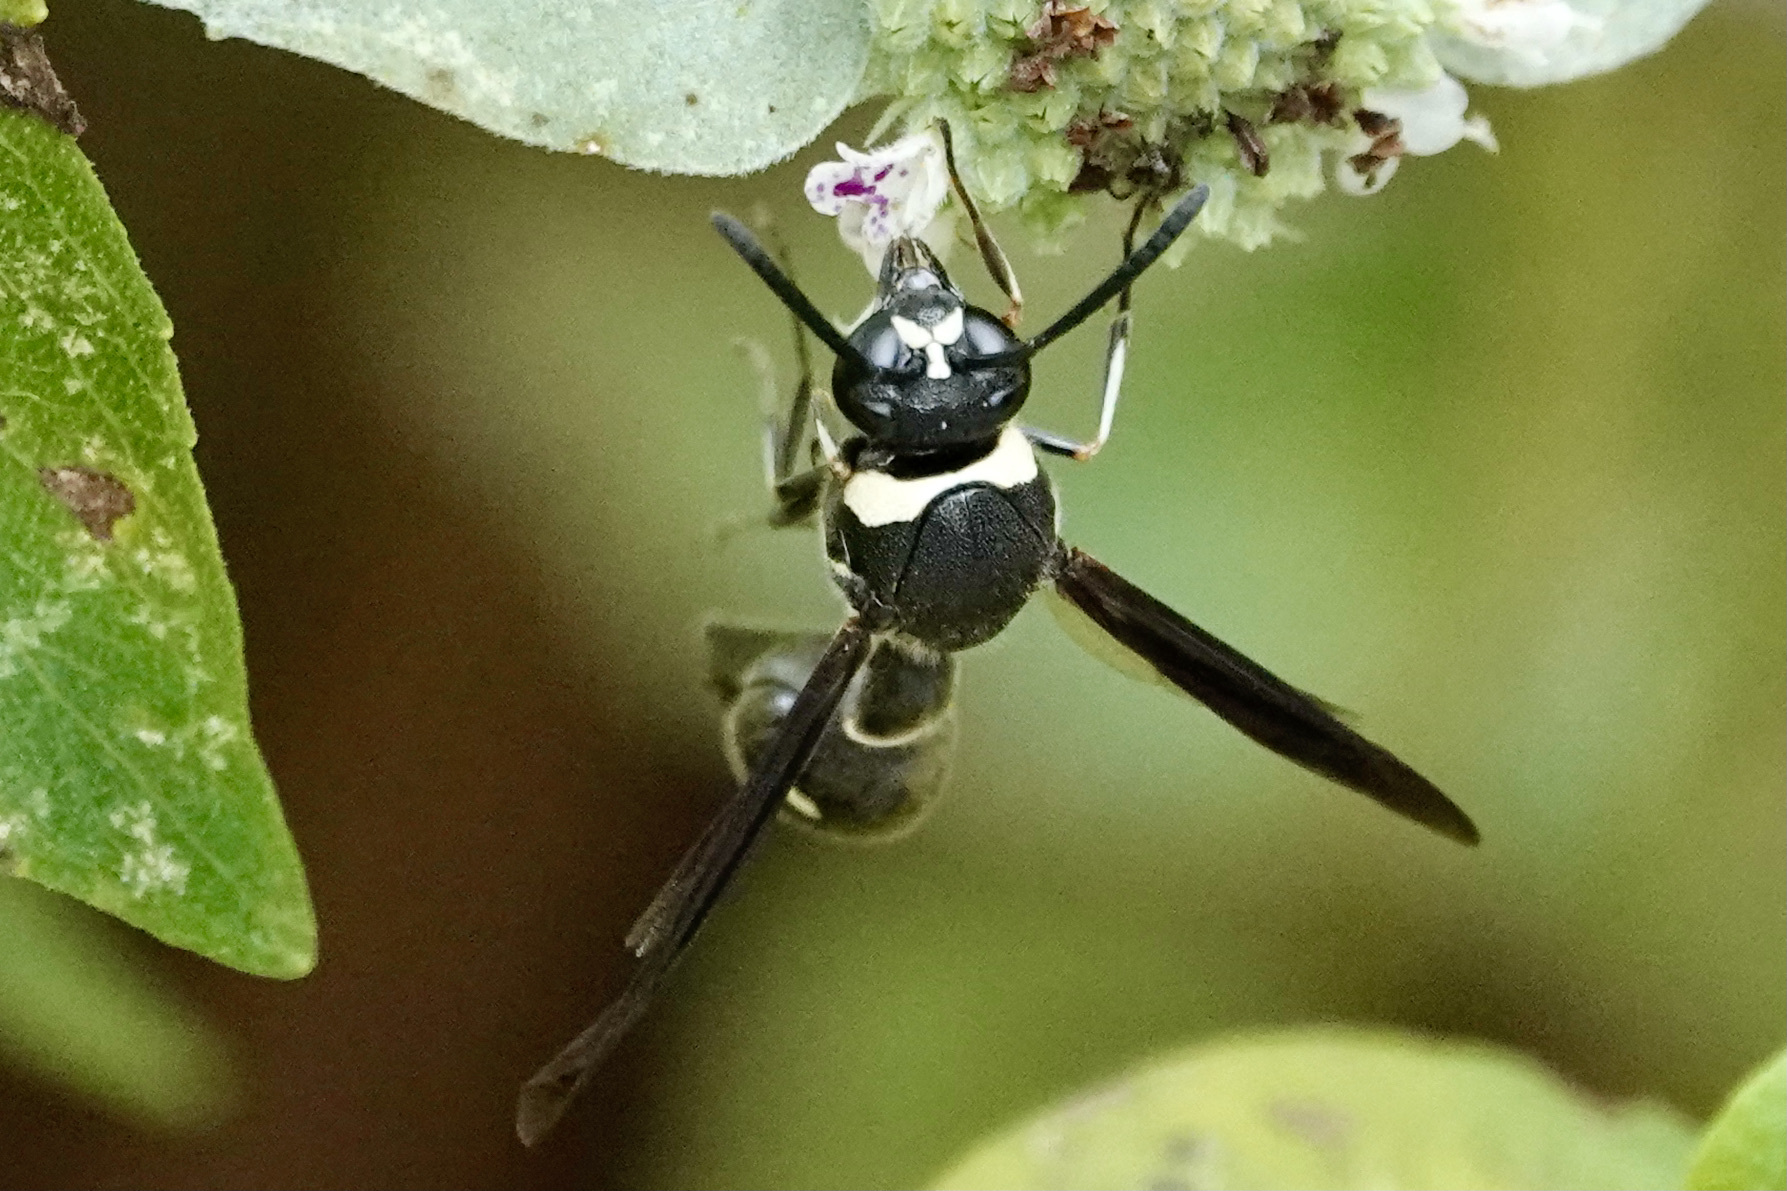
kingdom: Animalia
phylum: Arthropoda
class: Insecta
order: Hymenoptera
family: Vespidae
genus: Eumenes
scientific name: Eumenes fraternus
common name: Fraternal potter wasp
